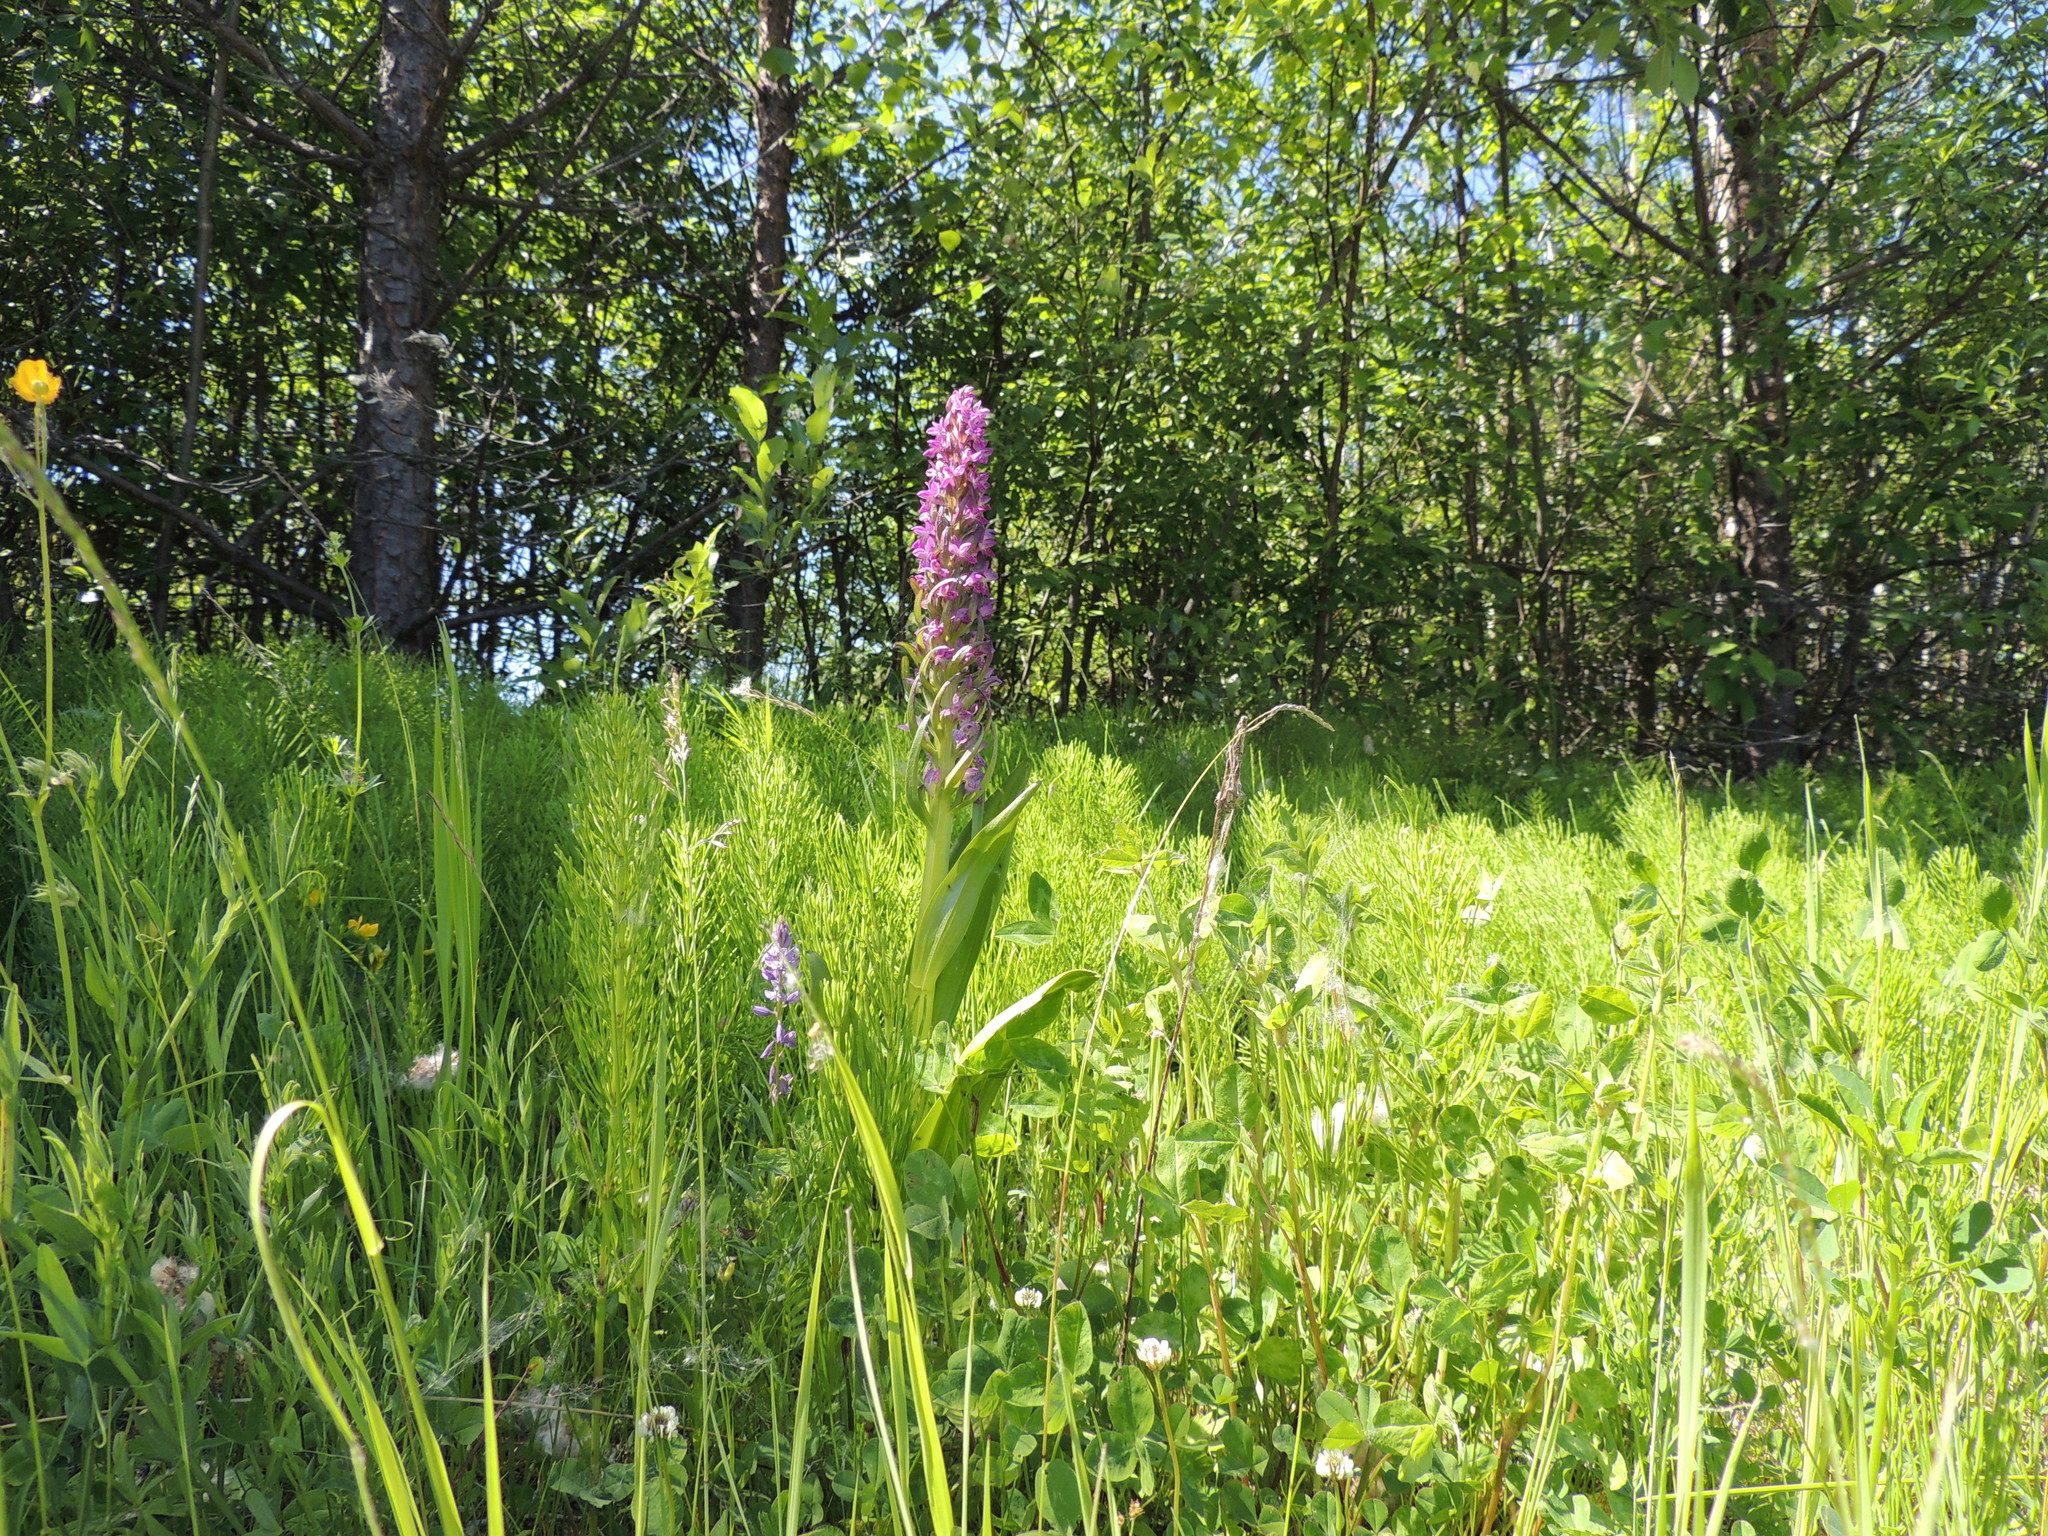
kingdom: Plantae
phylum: Tracheophyta
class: Liliopsida
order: Asparagales
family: Orchidaceae
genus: Dactylorhiza
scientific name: Dactylorhiza incarnata
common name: Early marsh-orchid
